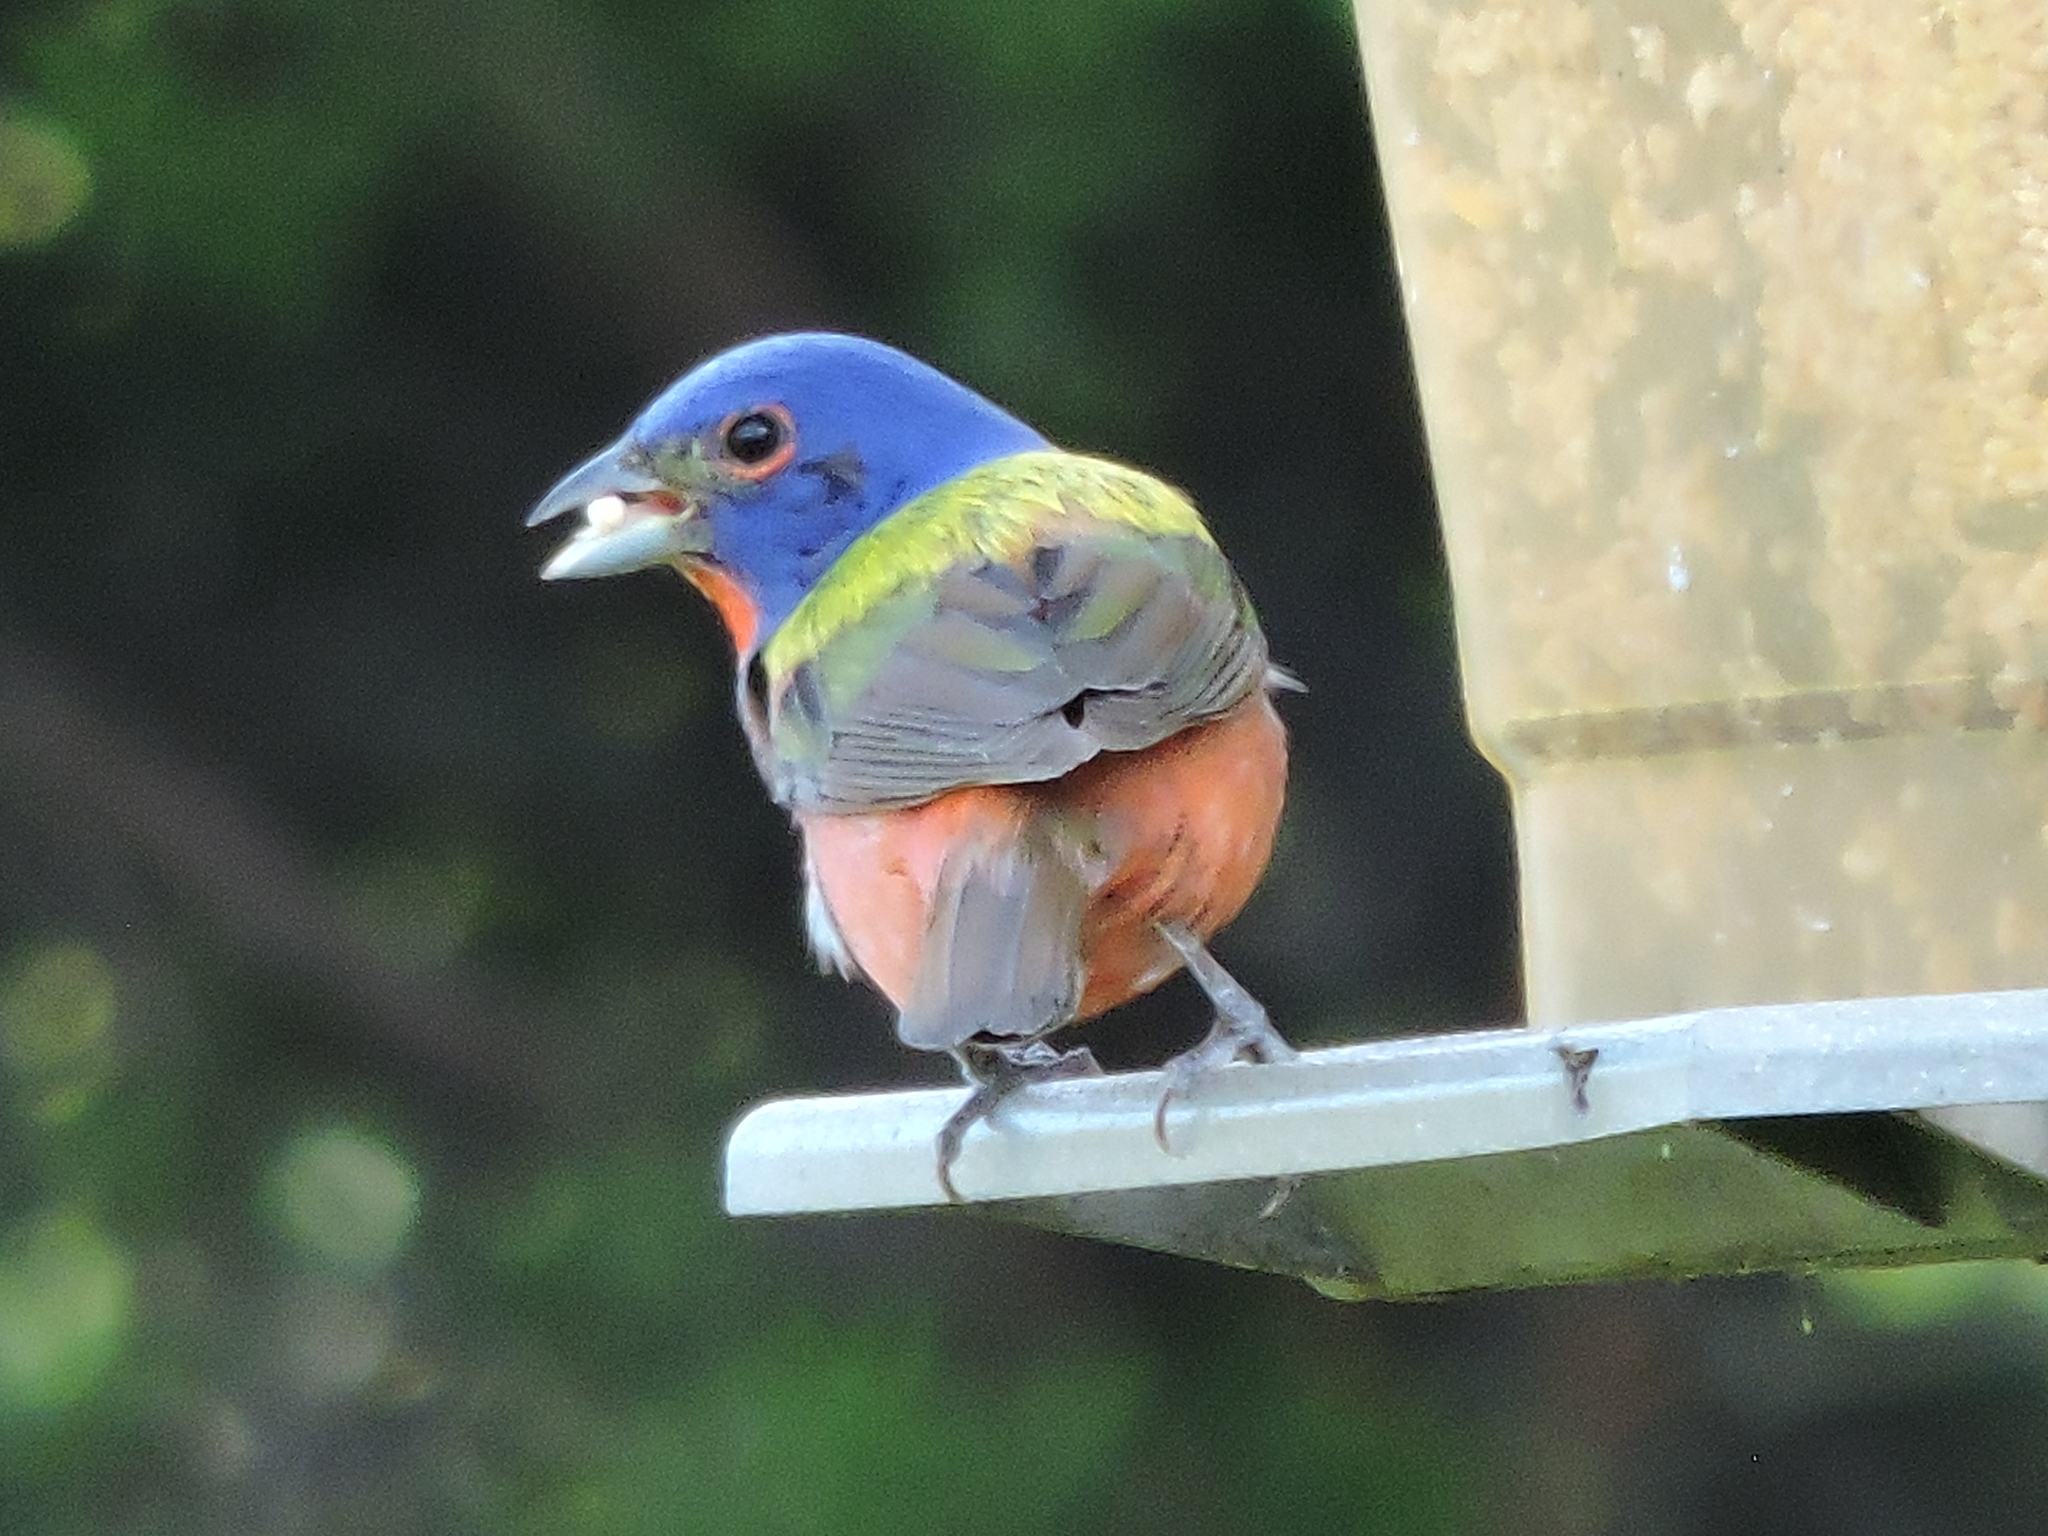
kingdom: Animalia
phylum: Chordata
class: Aves
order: Passeriformes
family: Cardinalidae
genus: Passerina
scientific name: Passerina ciris
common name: Painted bunting
